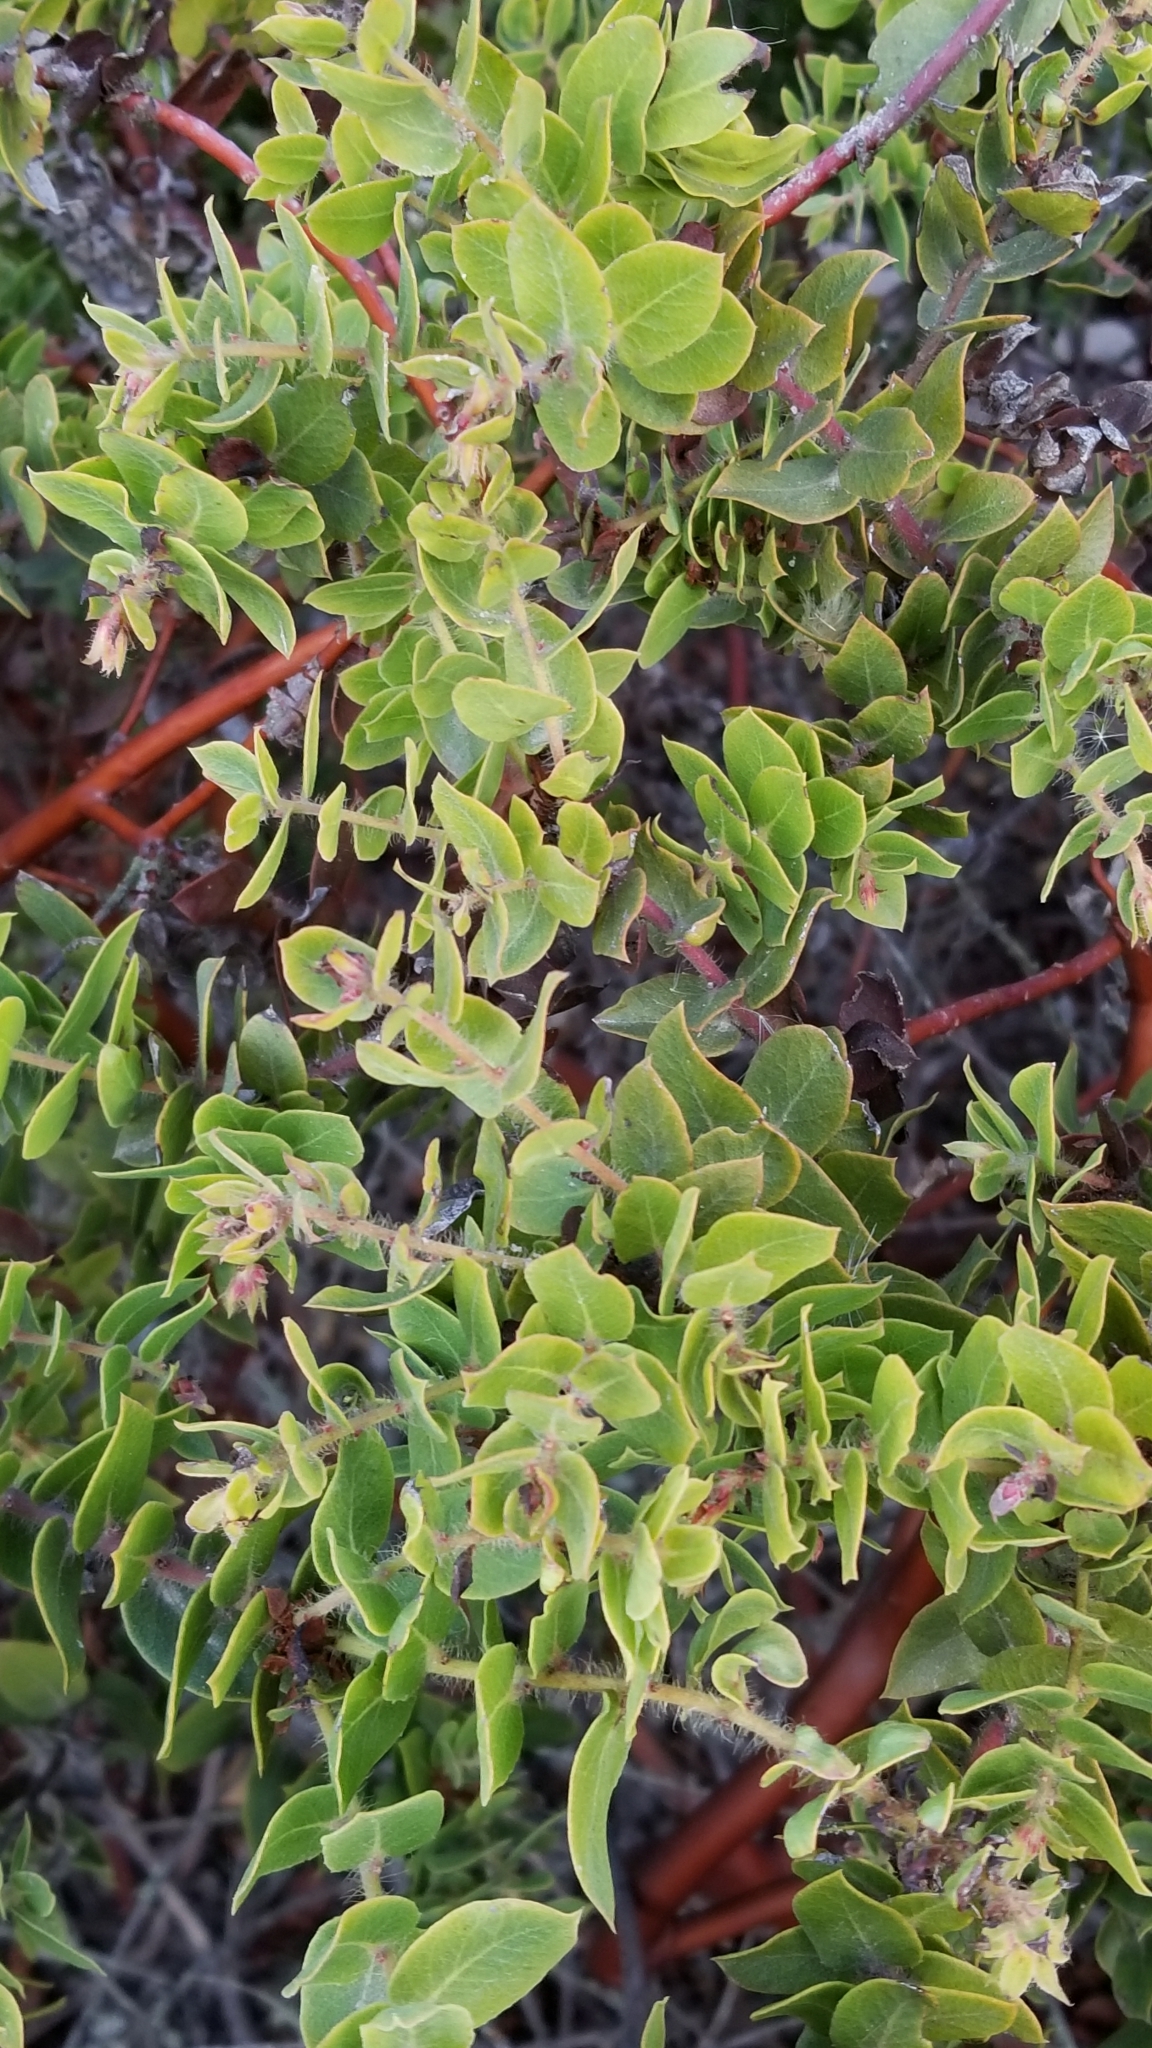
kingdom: Plantae
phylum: Tracheophyta
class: Magnoliopsida
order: Ericales
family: Ericaceae
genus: Arctostaphylos
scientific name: Arctostaphylos purissima
